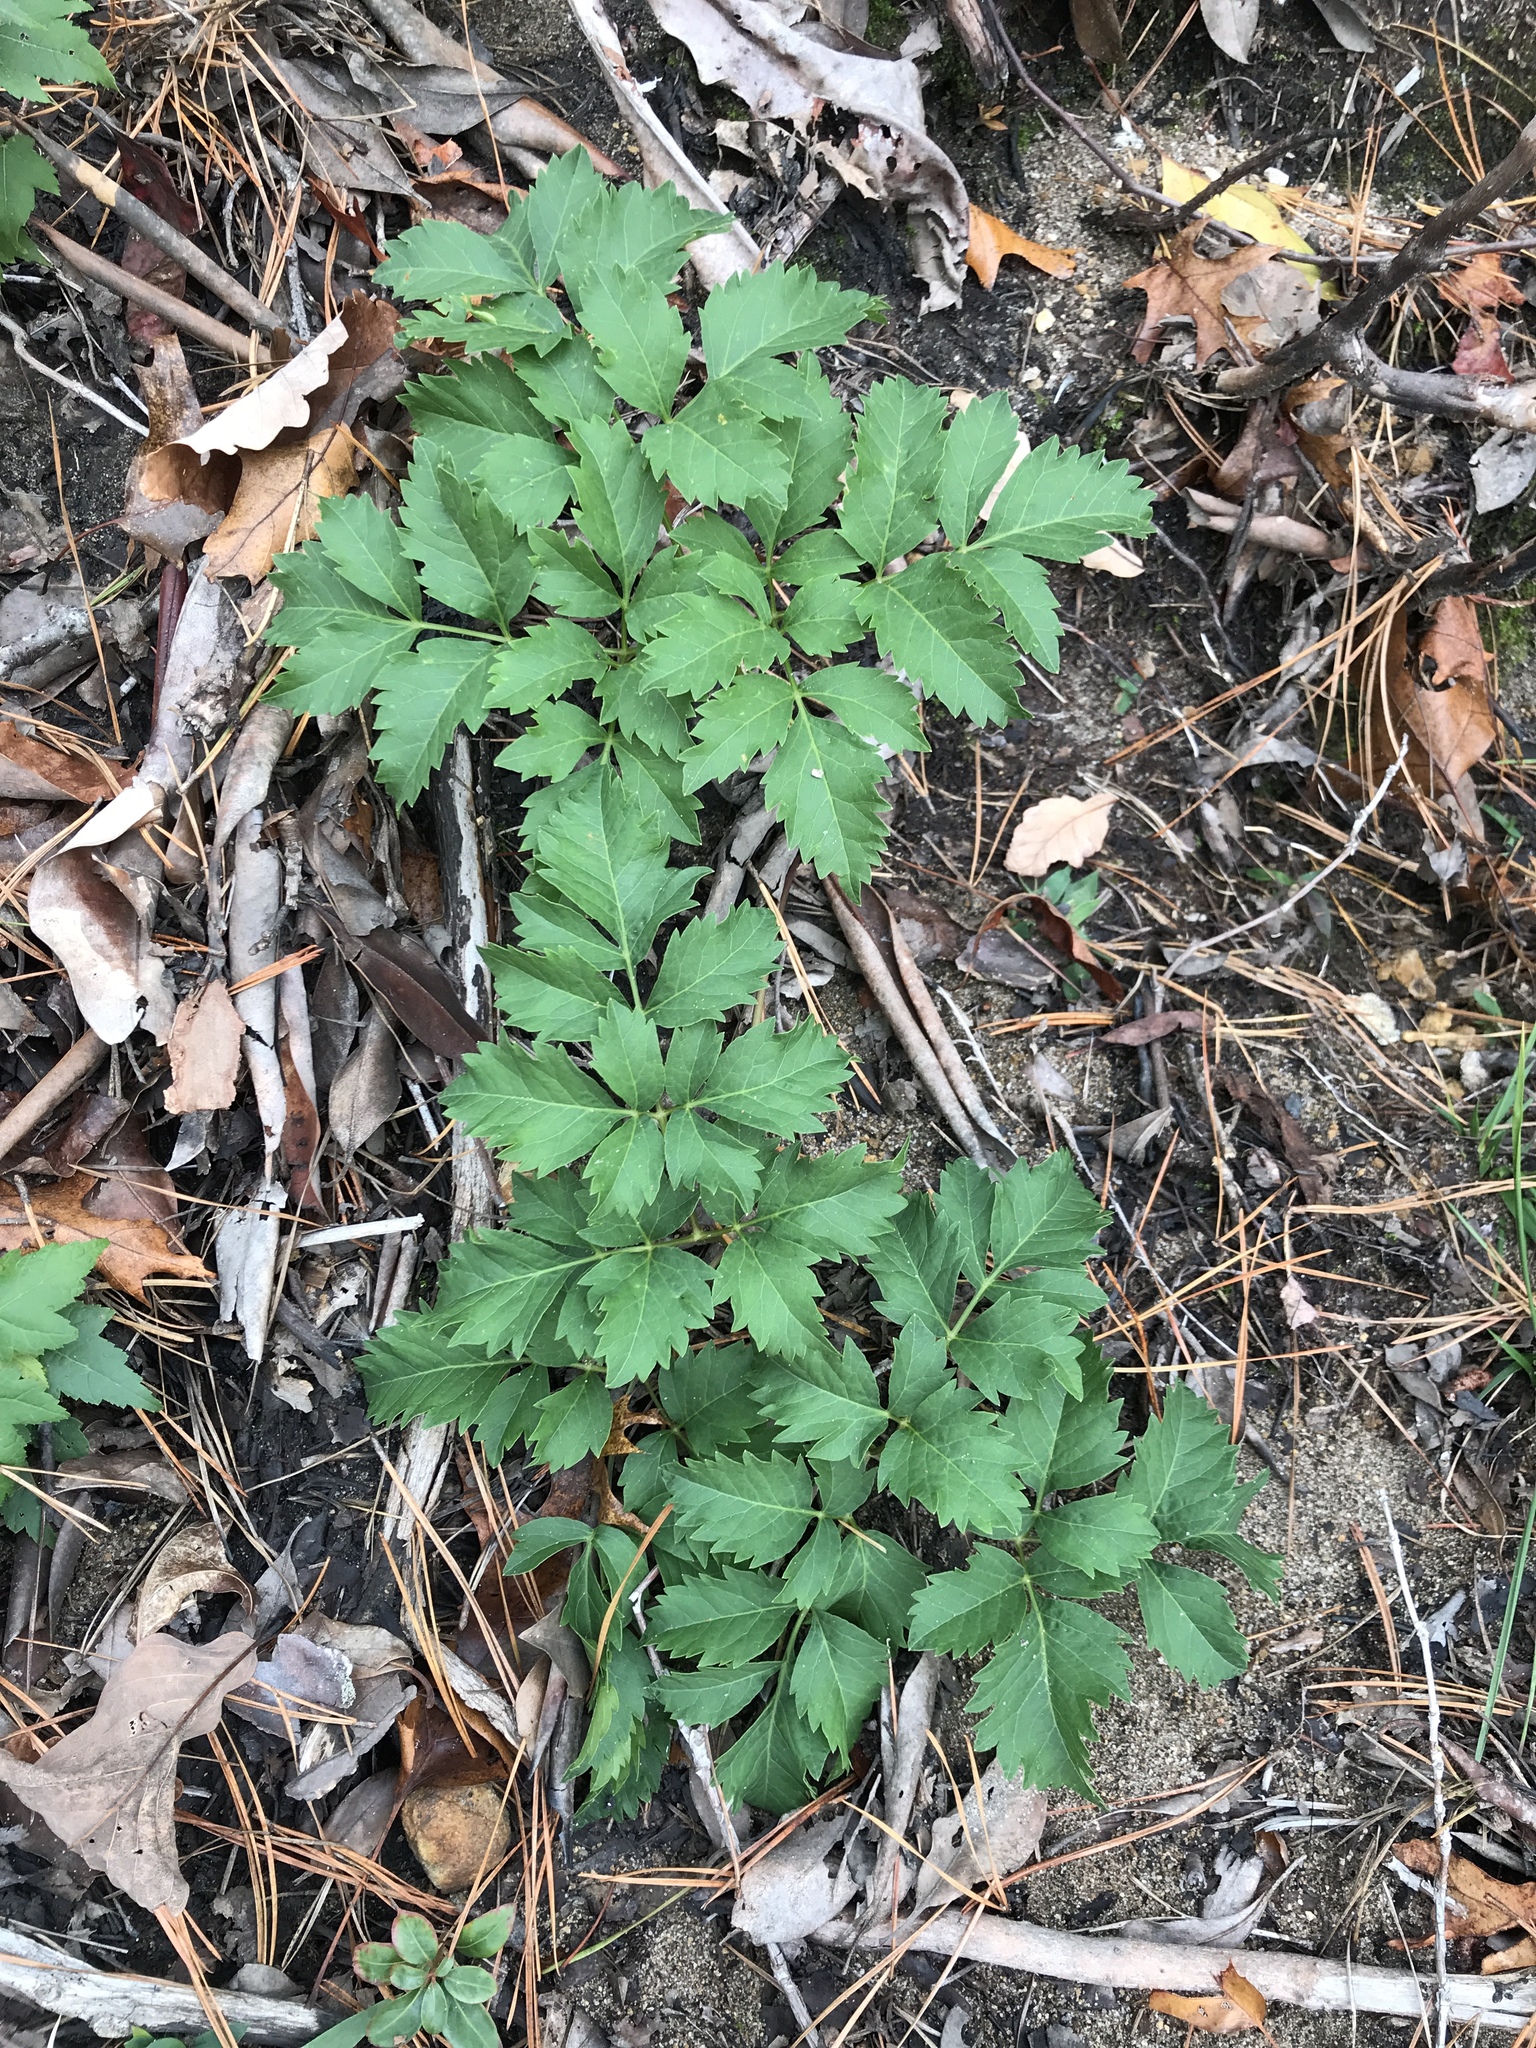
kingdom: Plantae
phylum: Tracheophyta
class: Magnoliopsida
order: Apiales
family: Apiaceae
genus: Ligusticum
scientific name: Ligusticum canadense
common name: American lovage
